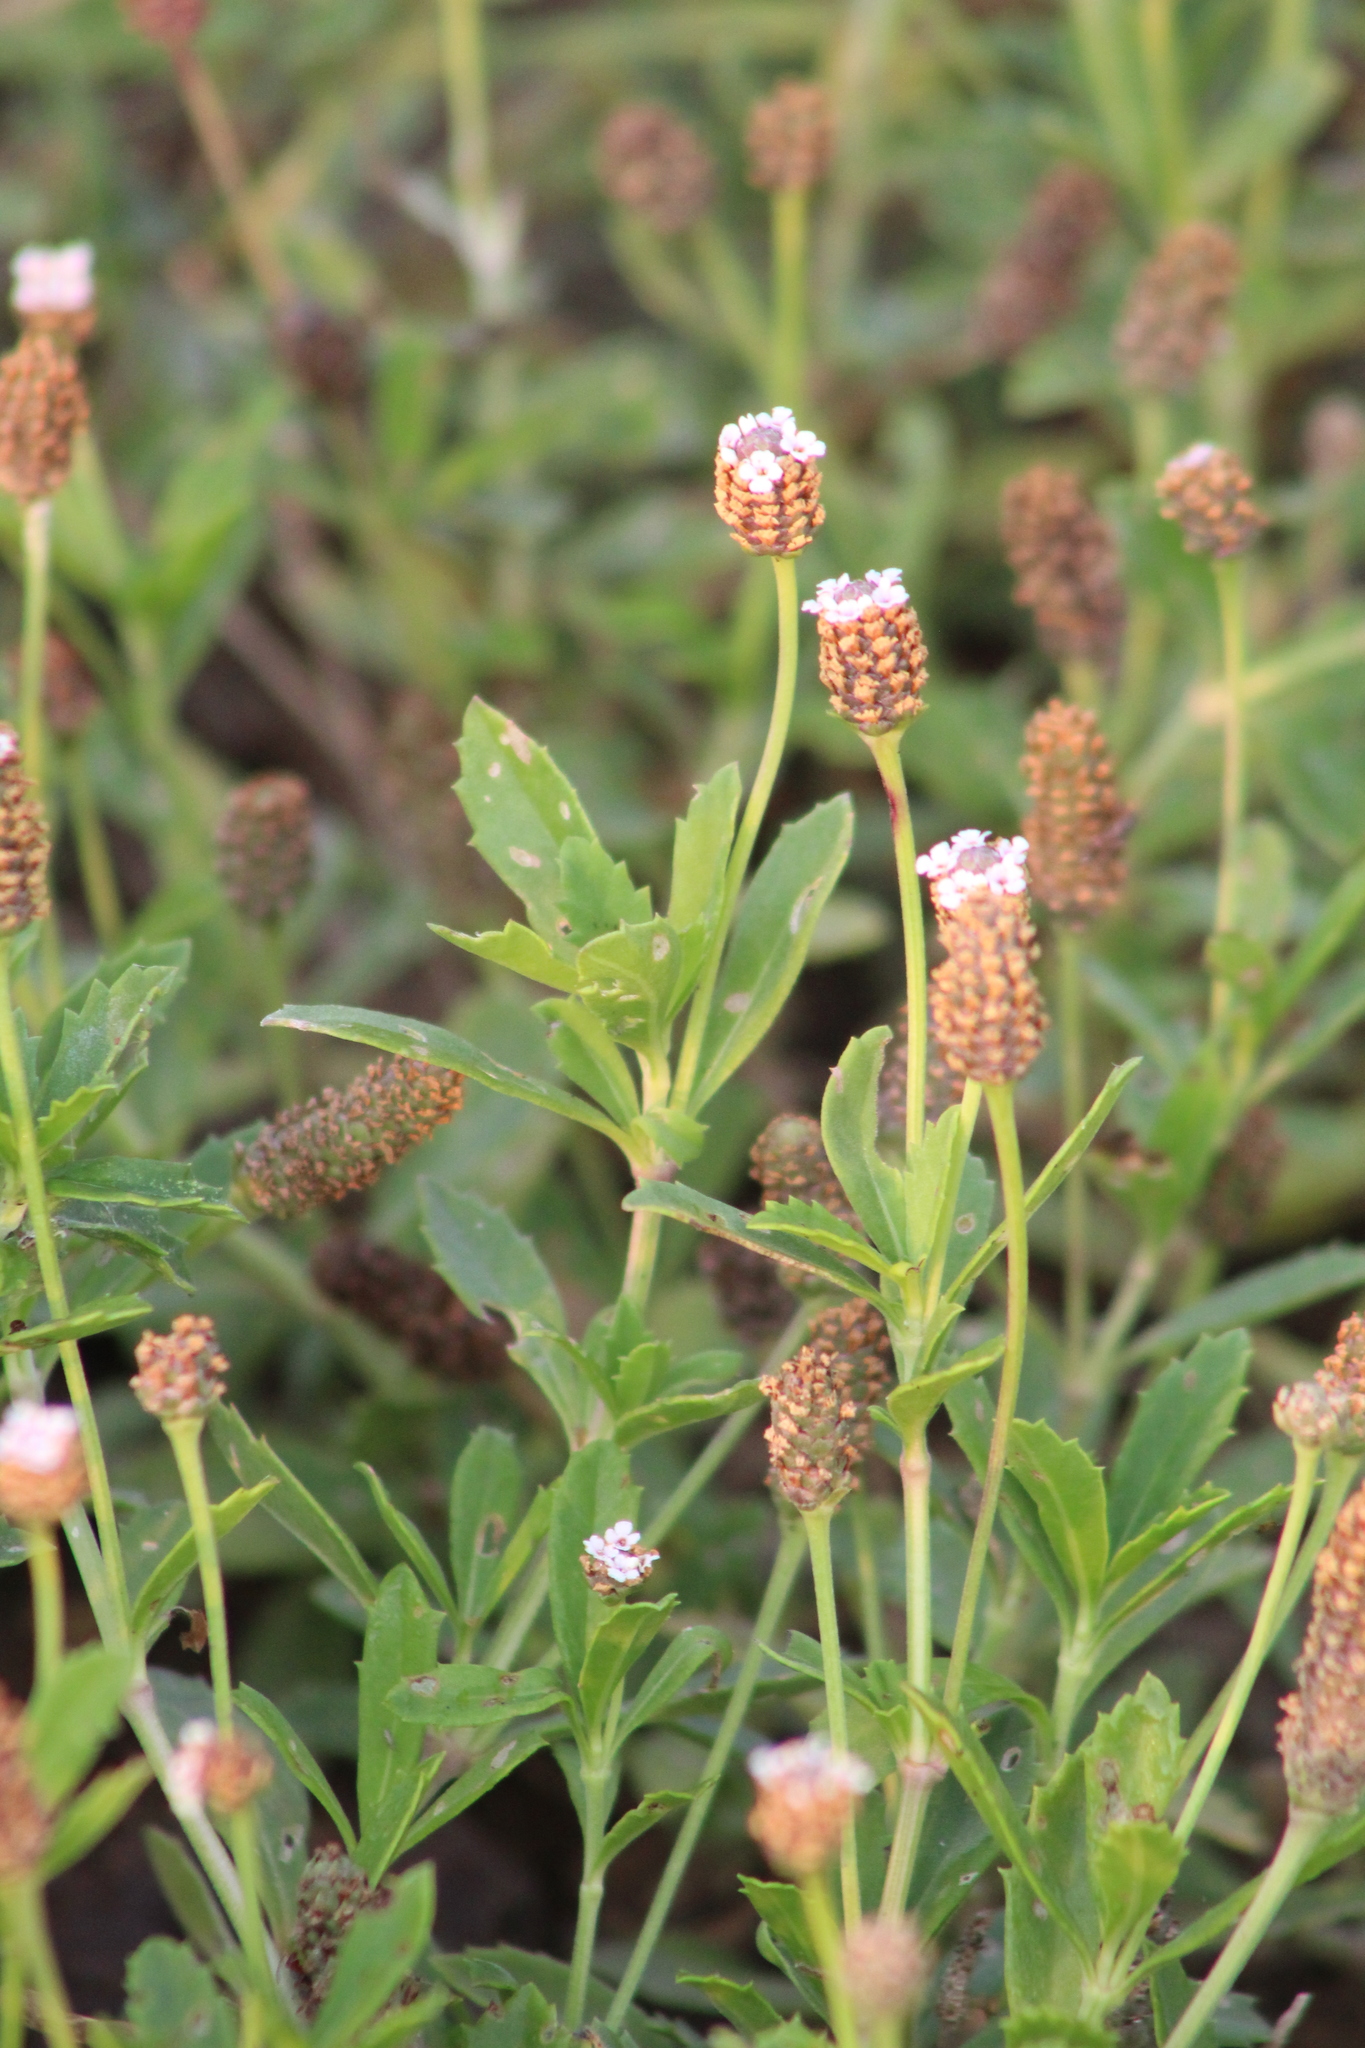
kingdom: Plantae
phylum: Tracheophyta
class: Magnoliopsida
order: Lamiales
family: Verbenaceae
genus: Phyla
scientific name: Phyla nodiflora
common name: Frogfruit
